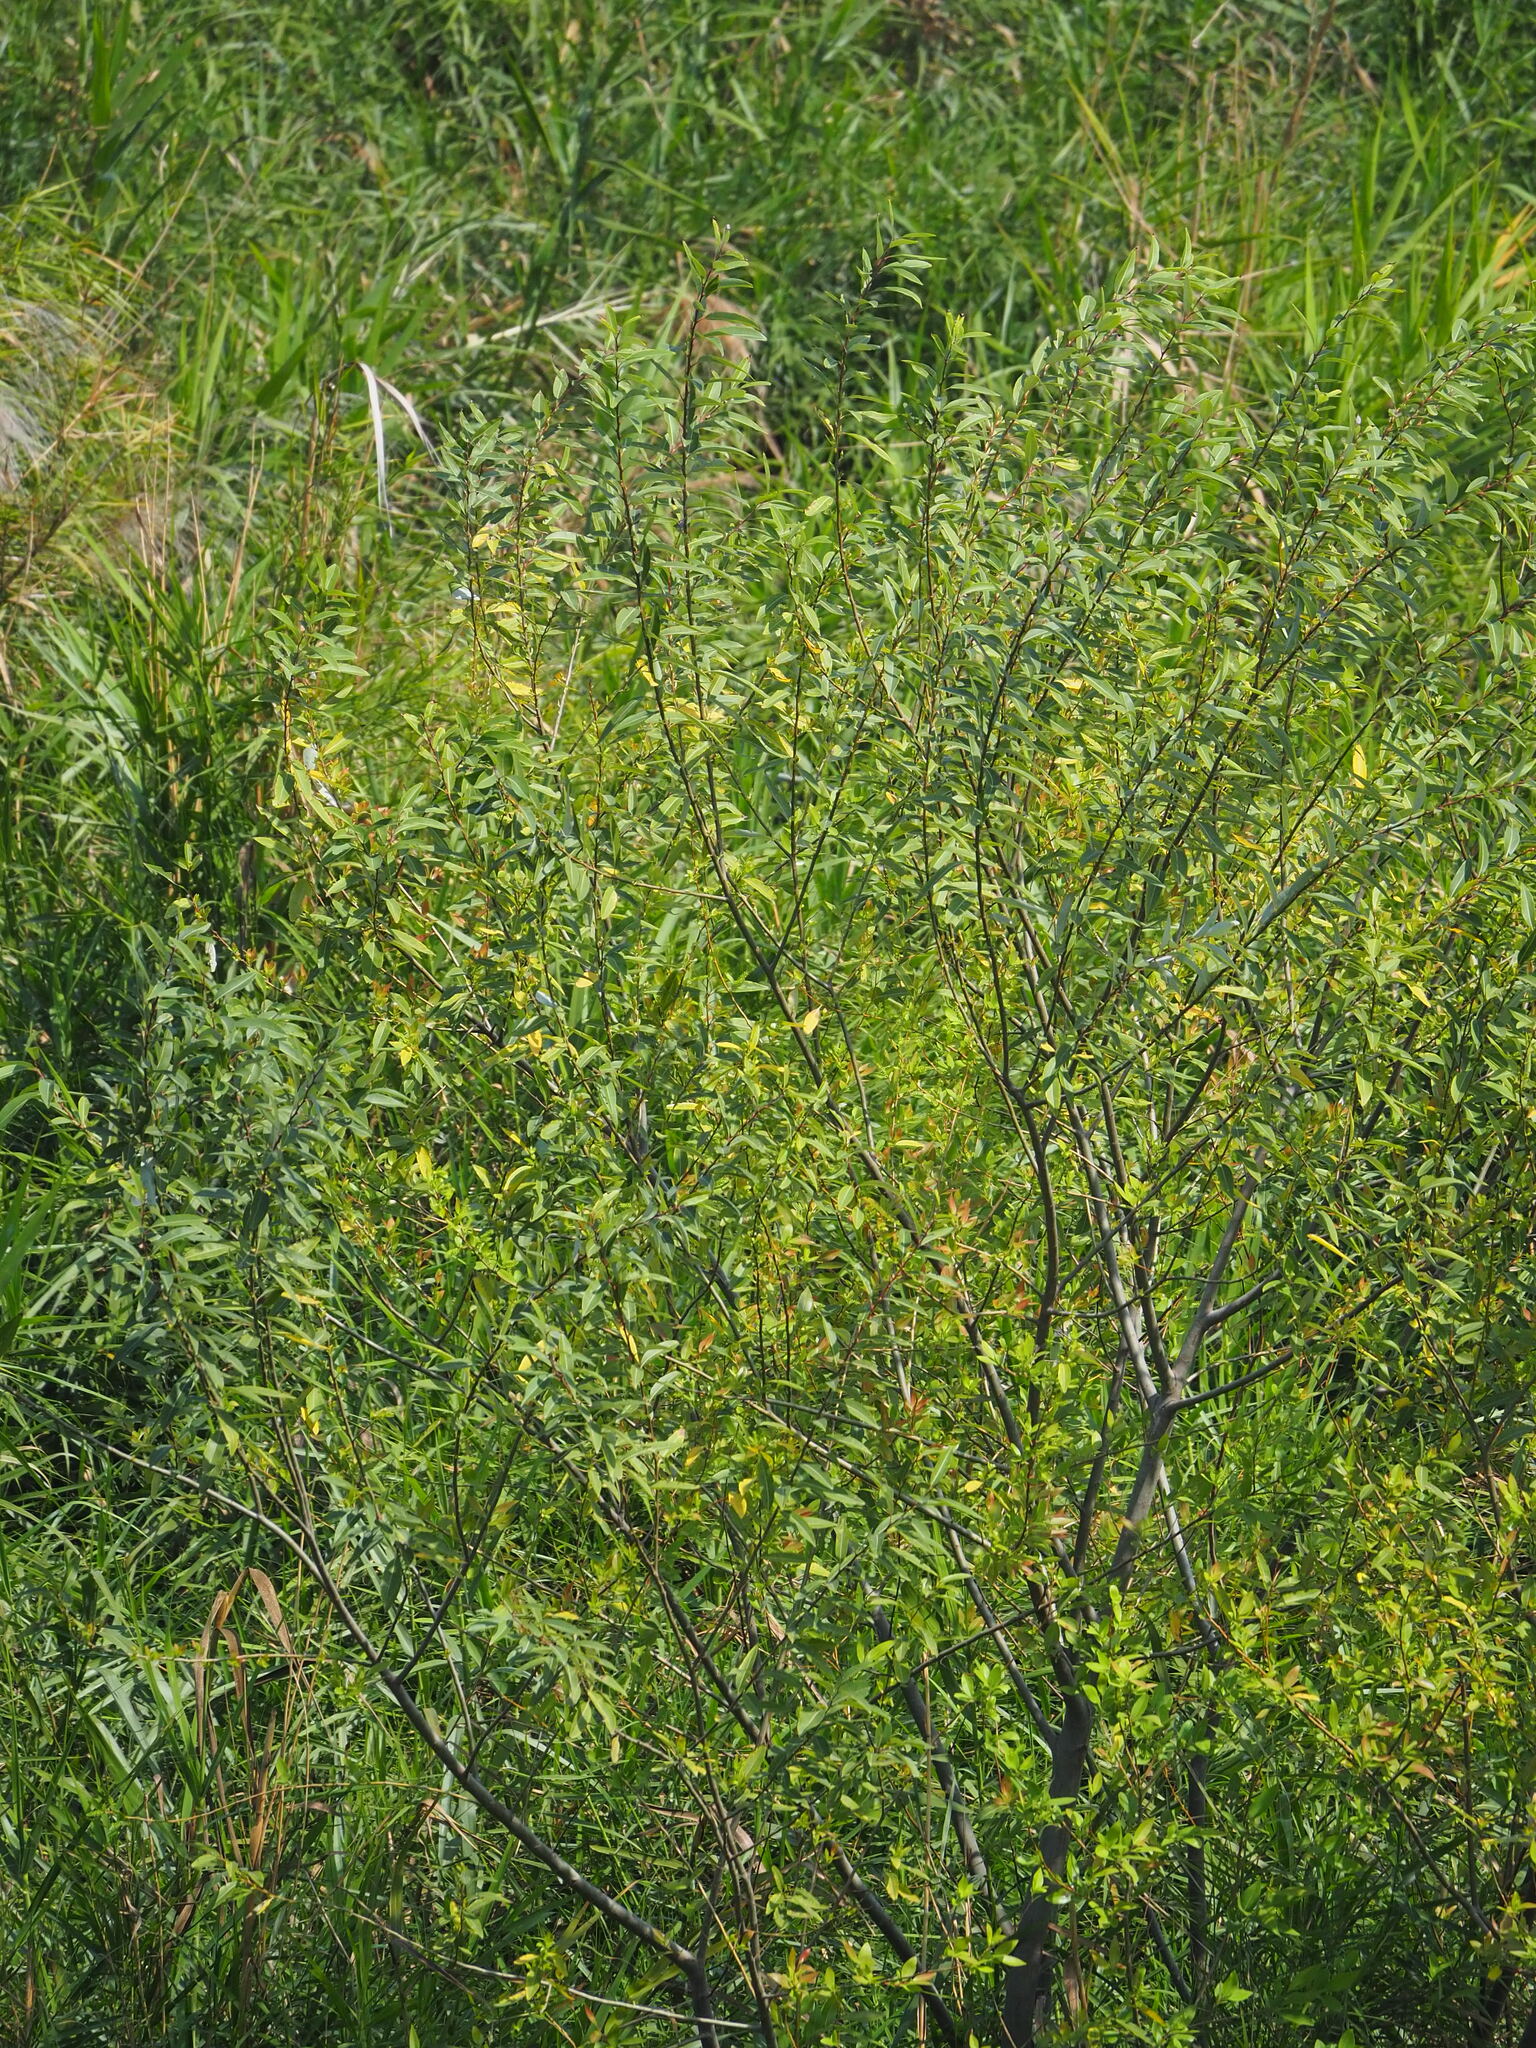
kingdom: Plantae
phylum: Tracheophyta
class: Magnoliopsida
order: Malpighiales
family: Salicaceae
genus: Salix
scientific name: Salix mesnyi
